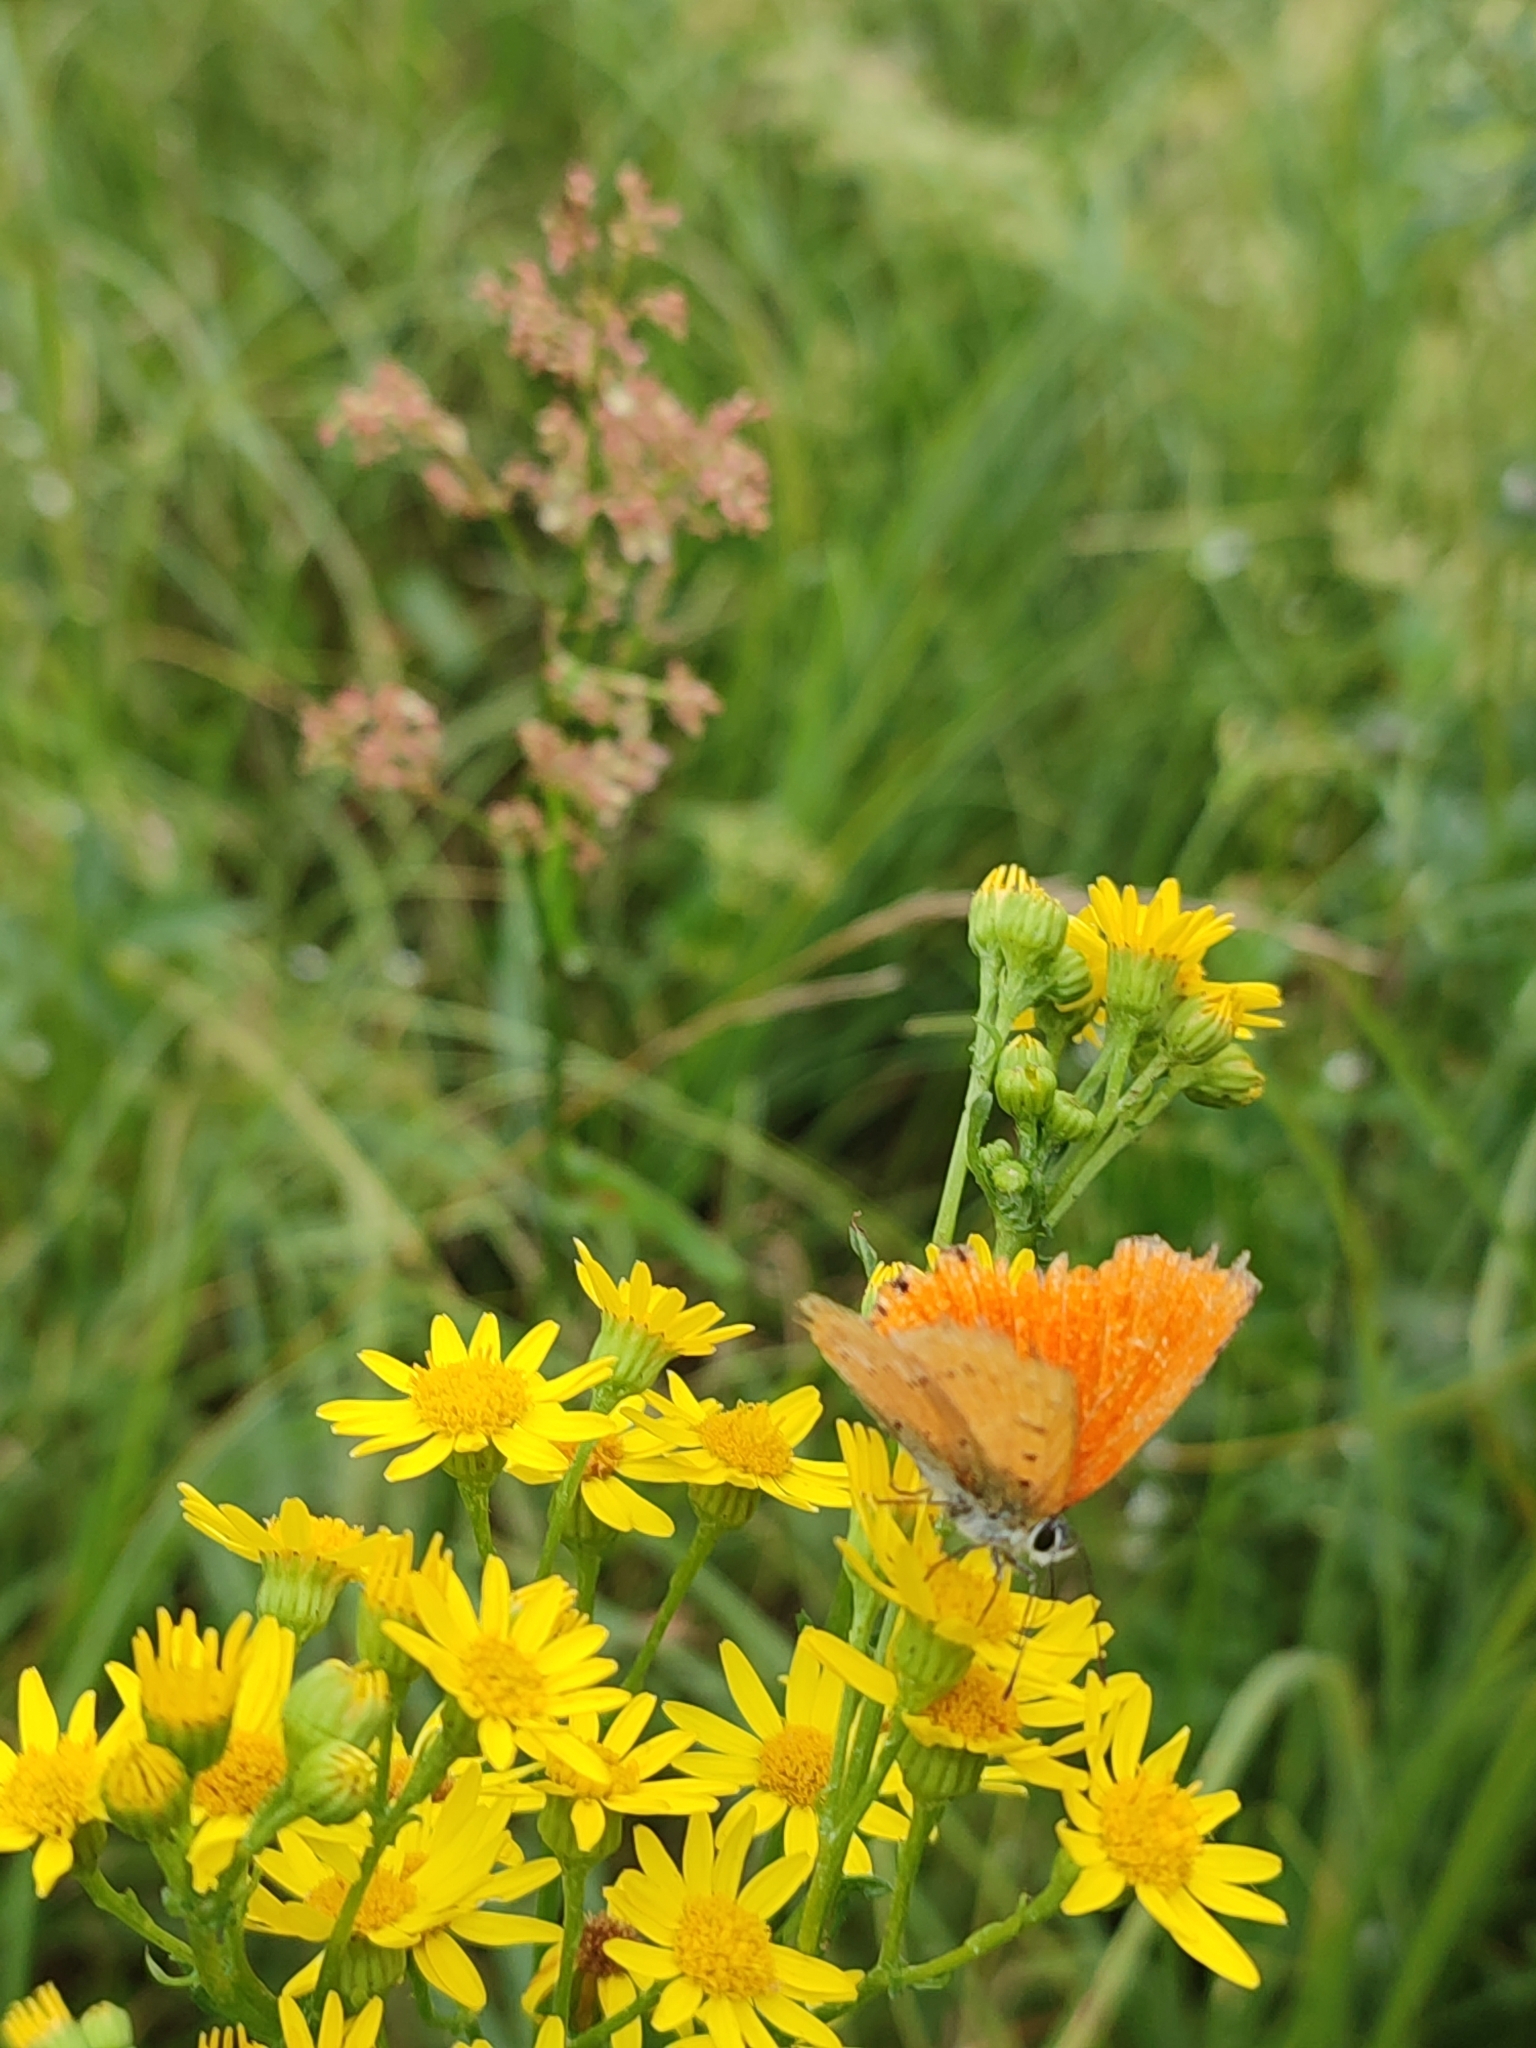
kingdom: Animalia
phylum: Arthropoda
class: Insecta
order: Lepidoptera
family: Lycaenidae
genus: Lycaena
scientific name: Lycaena virgaureae
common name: Scarce copper
